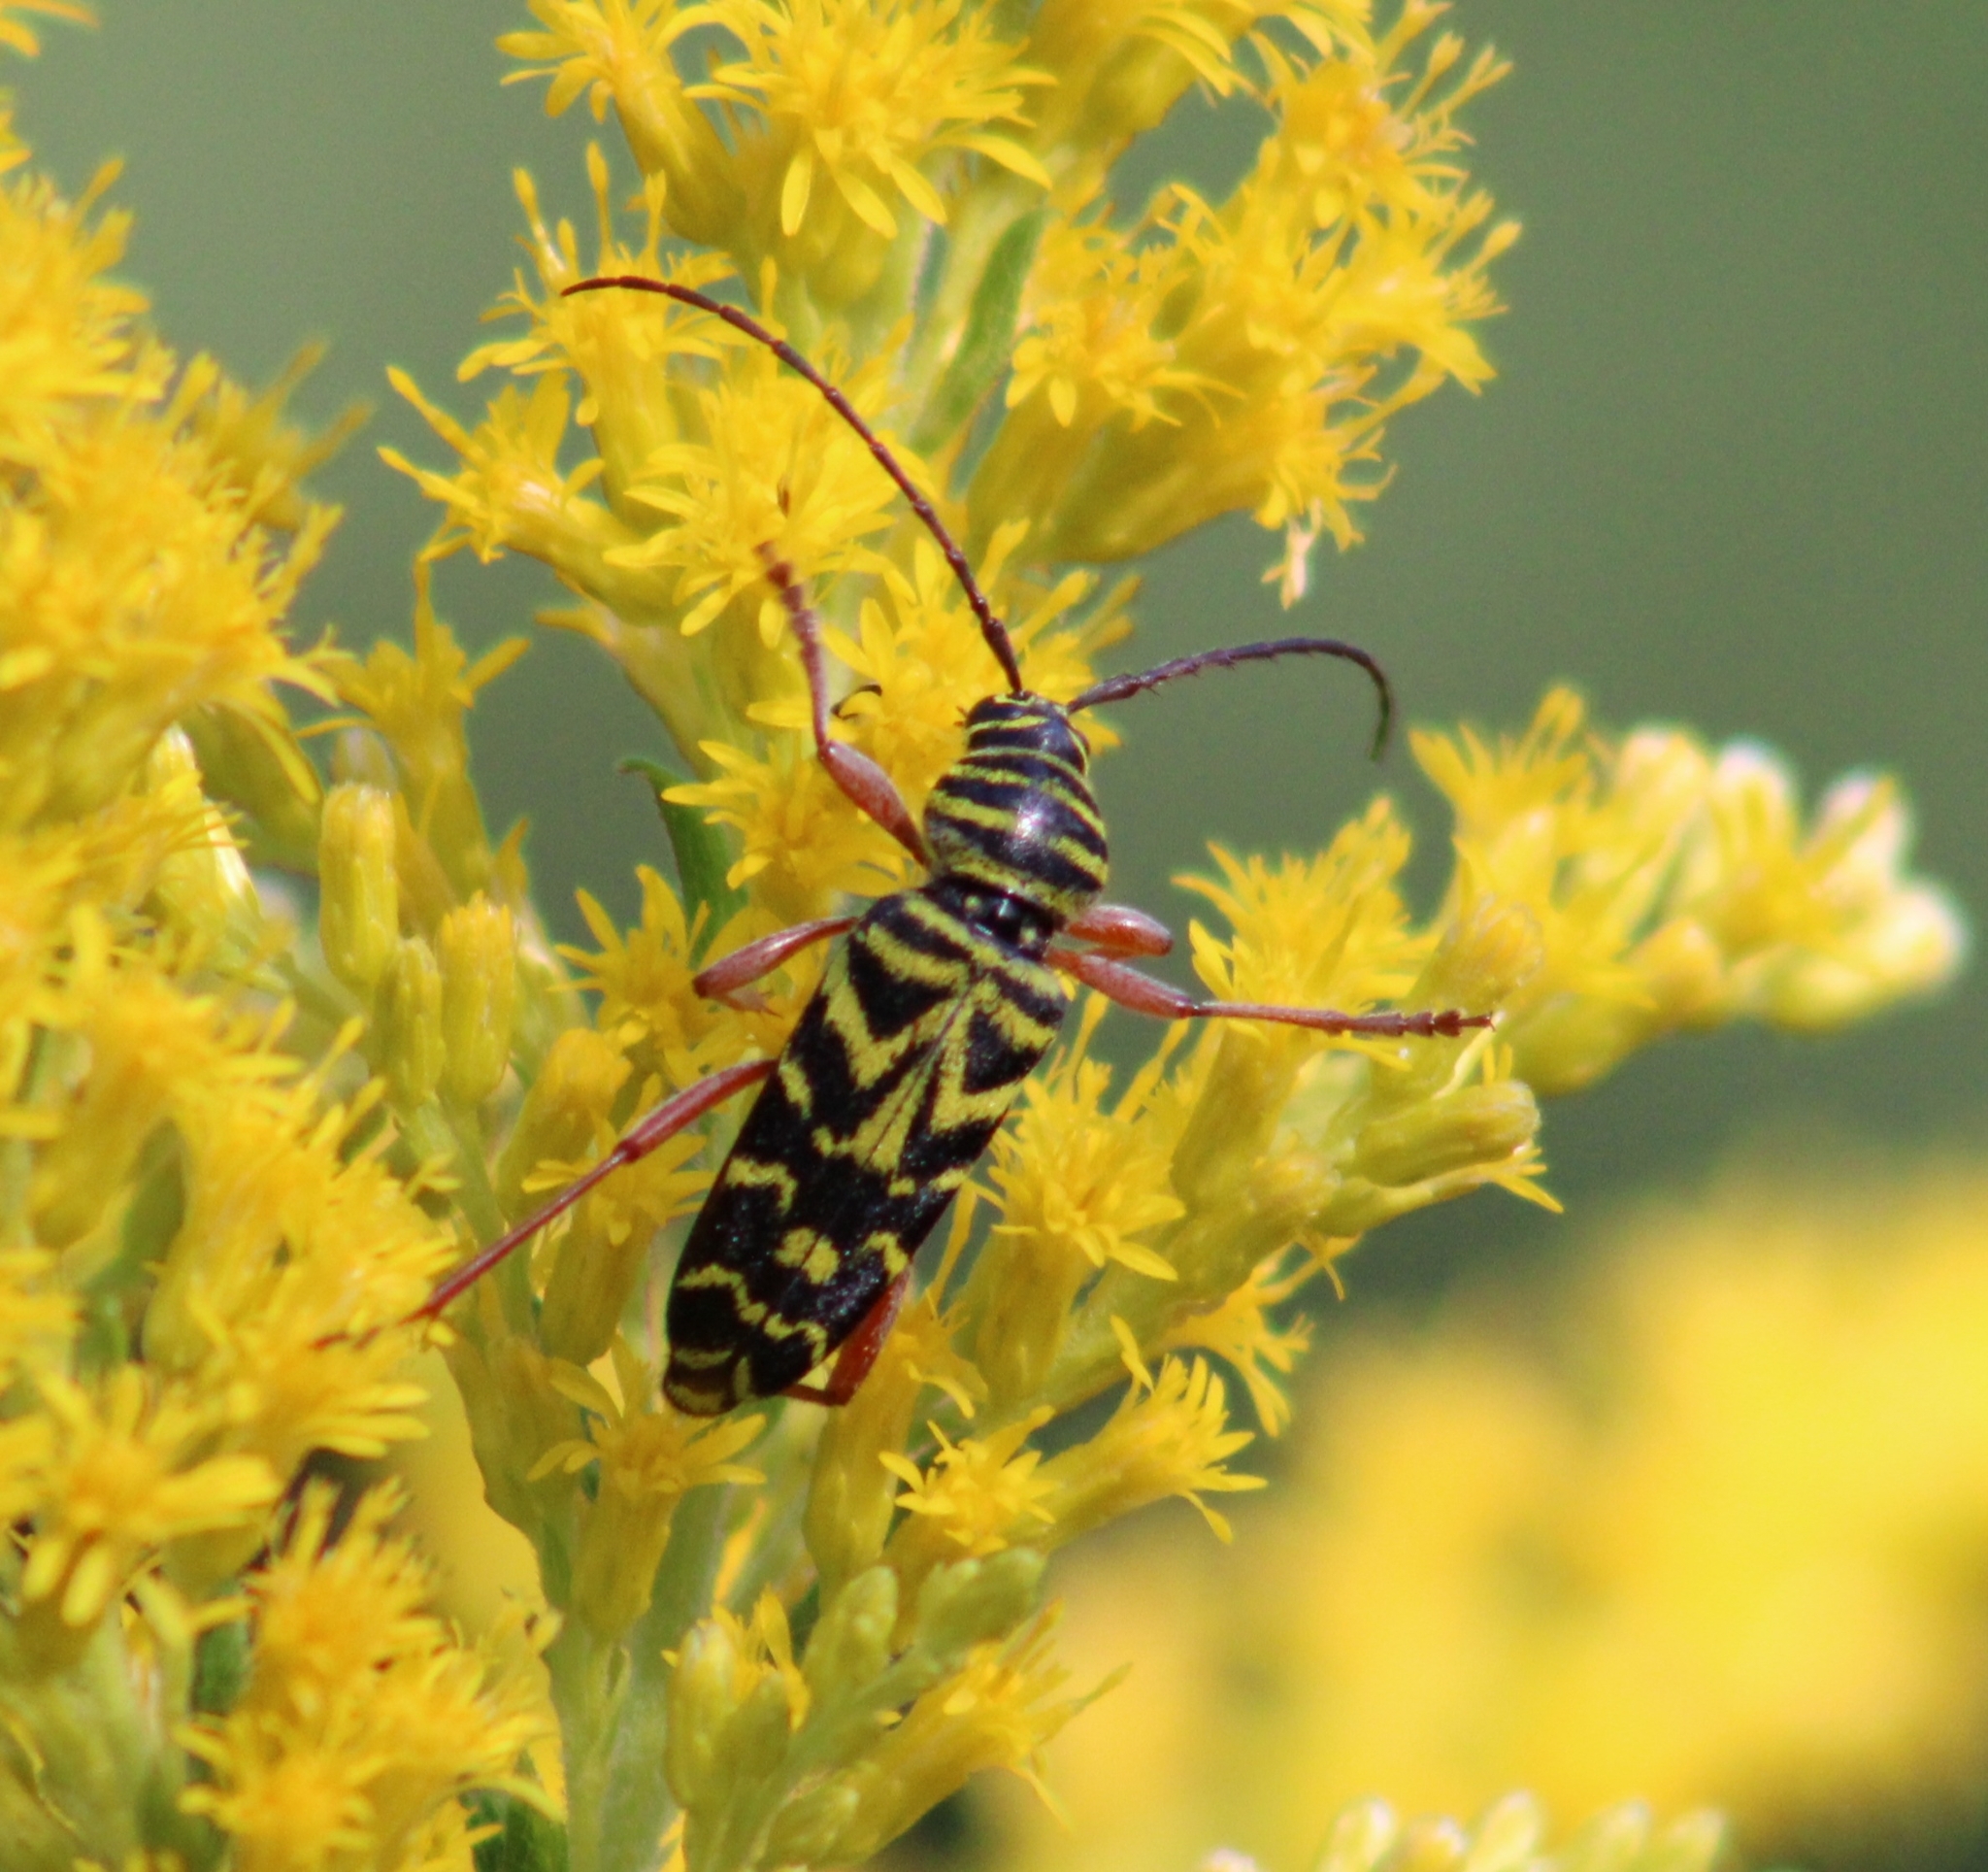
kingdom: Animalia
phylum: Arthropoda
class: Insecta
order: Coleoptera
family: Cerambycidae
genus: Megacyllene
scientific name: Megacyllene robiniae
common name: Locust borer
